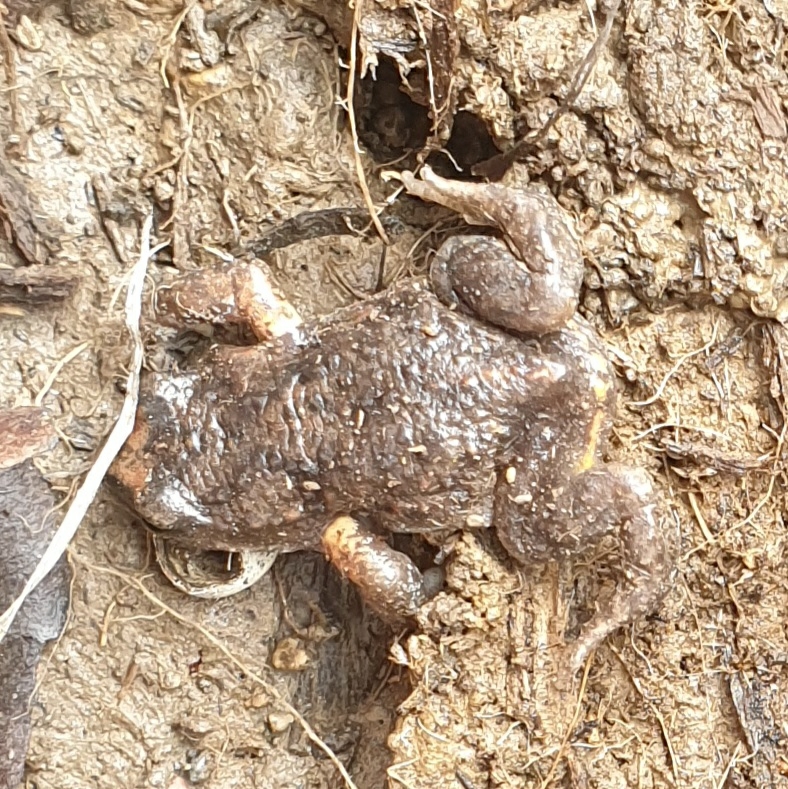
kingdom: Animalia
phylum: Chordata
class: Amphibia
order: Anura
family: Myobatrachidae
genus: Pseudophryne
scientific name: Pseudophryne bibronii
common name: Bibron’s toadlet
